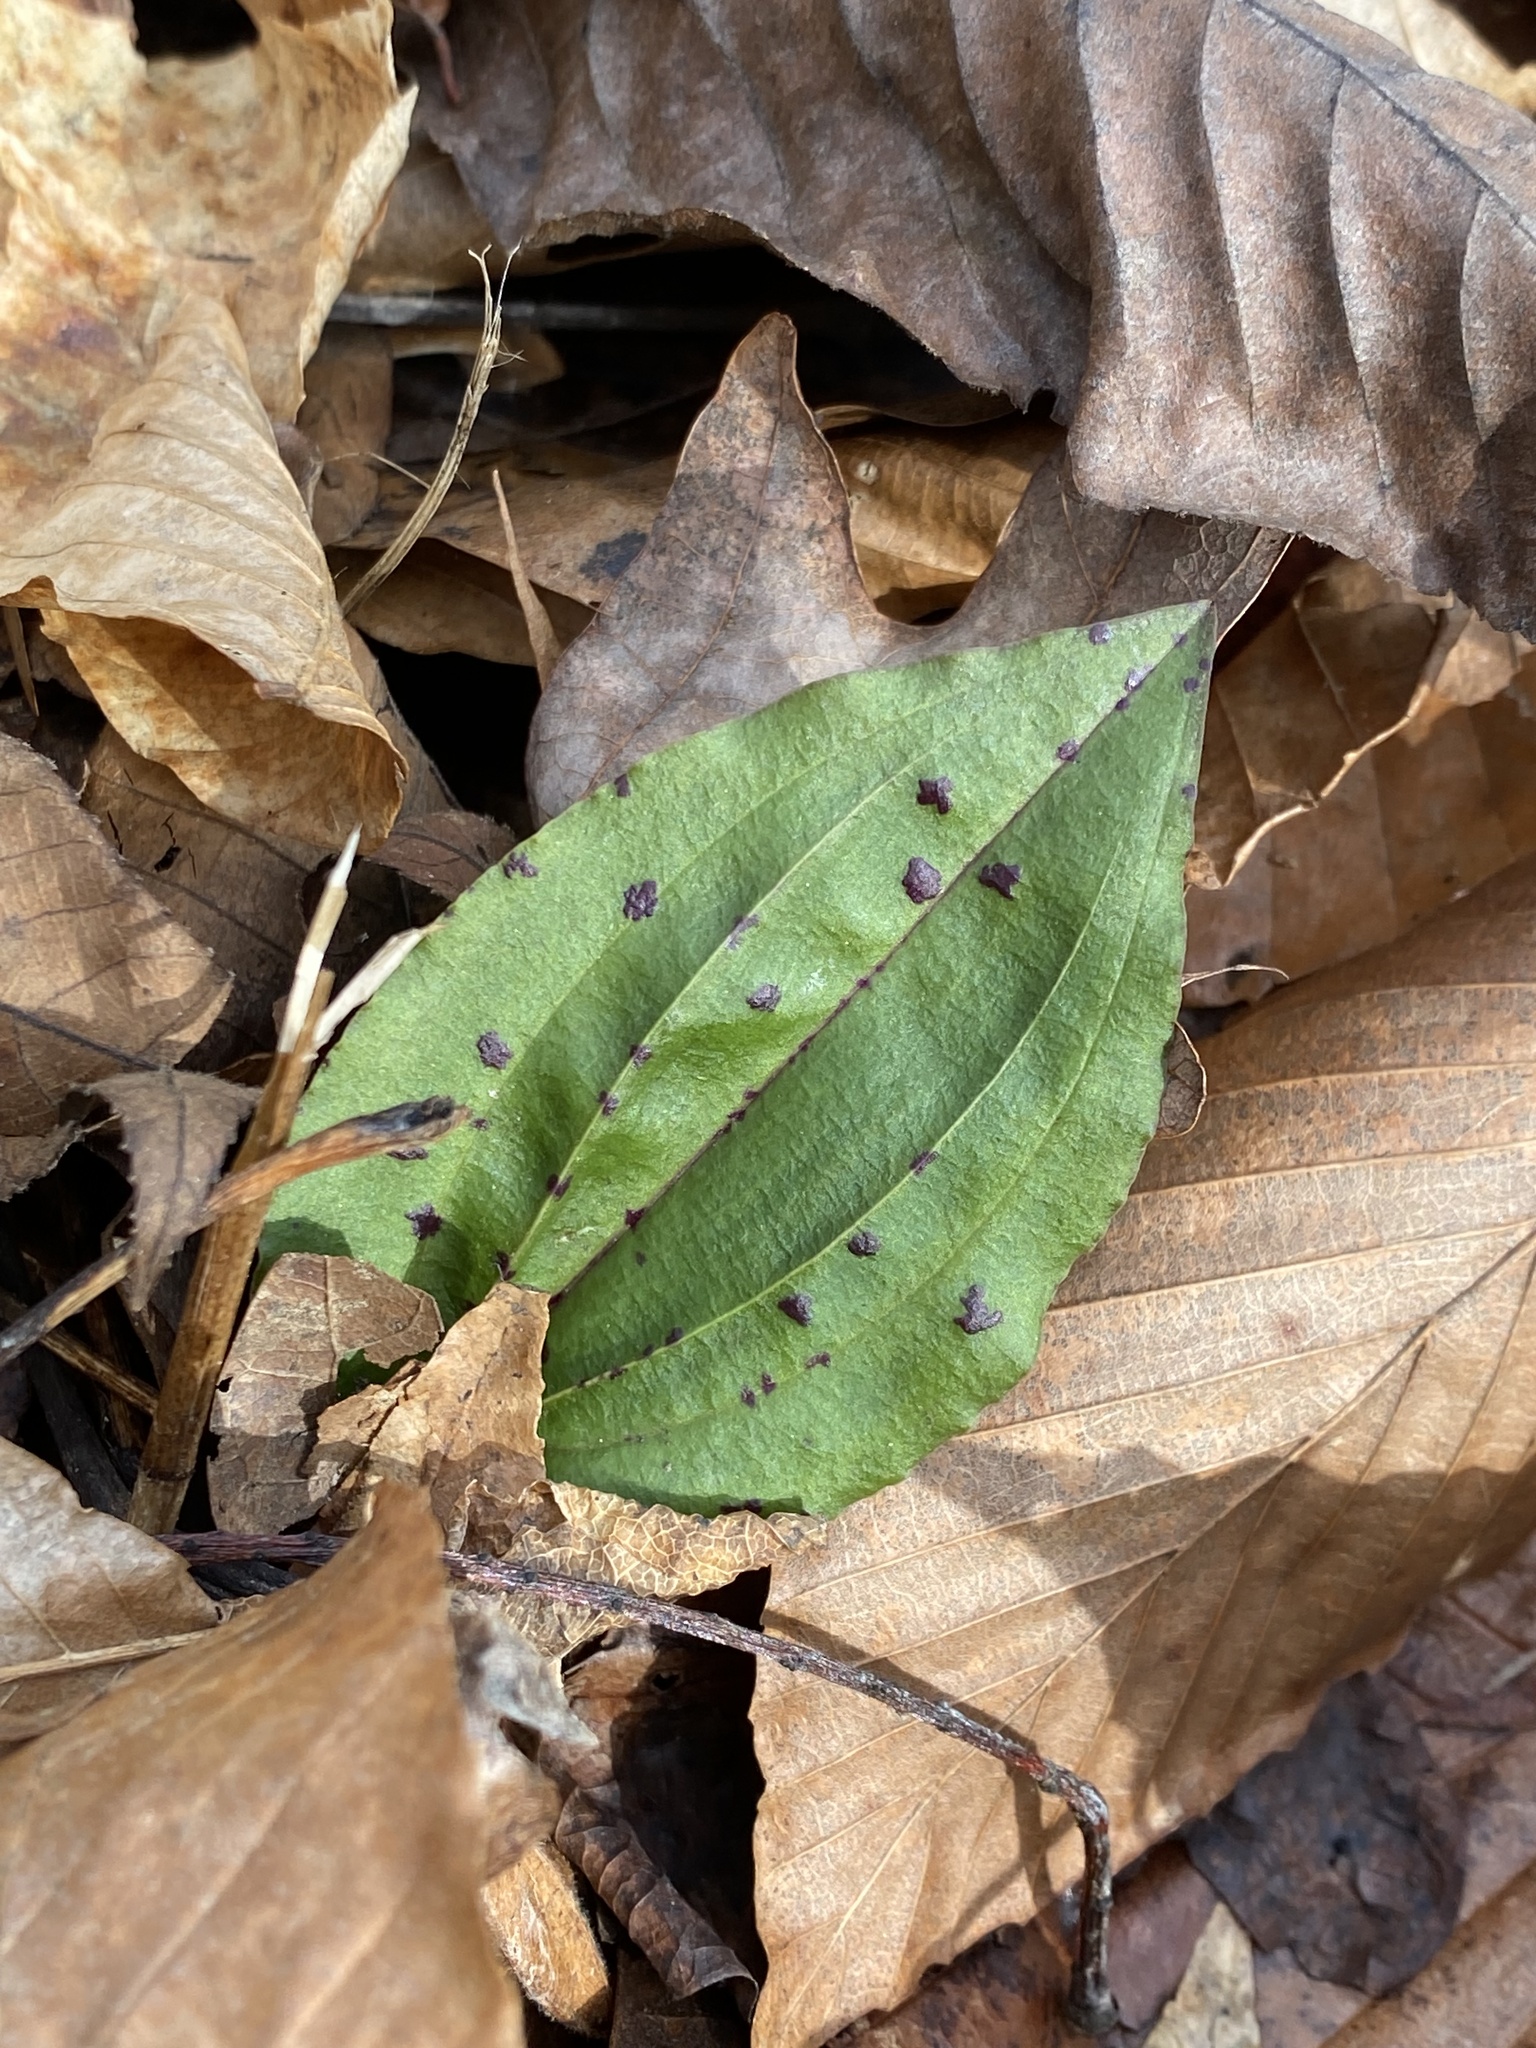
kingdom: Plantae
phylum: Tracheophyta
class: Liliopsida
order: Asparagales
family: Orchidaceae
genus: Tipularia
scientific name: Tipularia discolor
